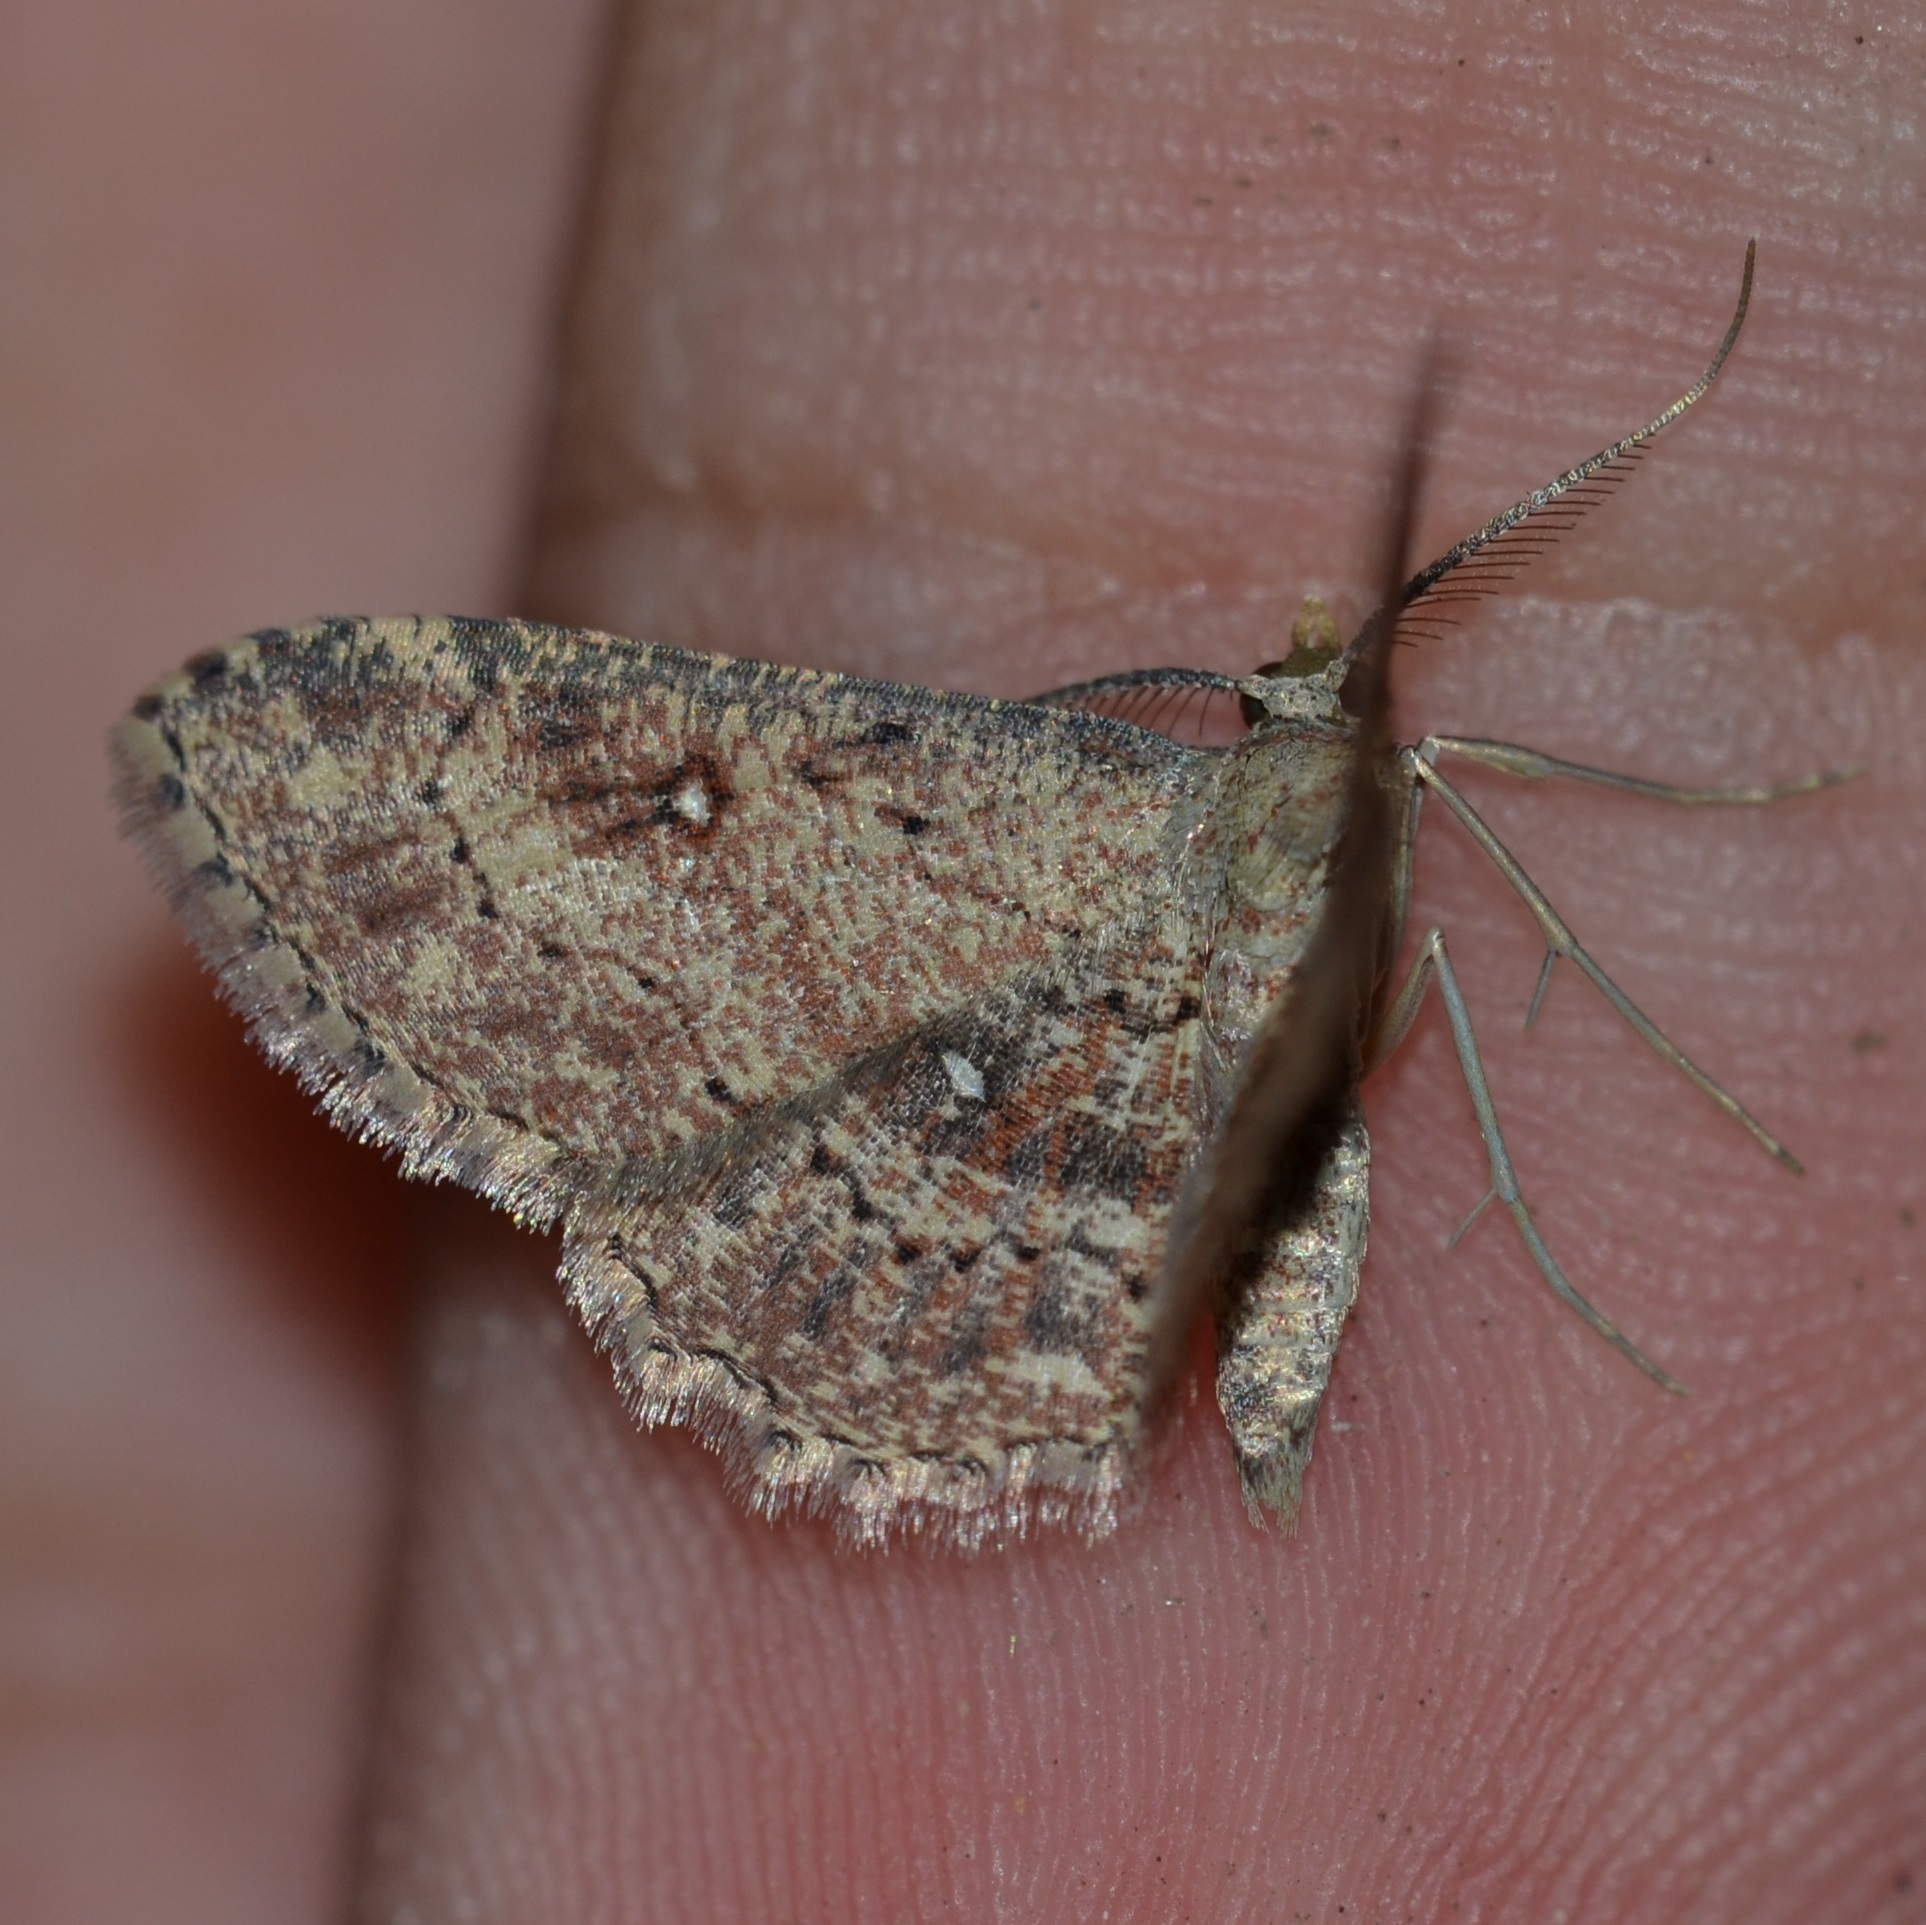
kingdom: Animalia
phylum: Arthropoda
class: Insecta
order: Lepidoptera
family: Geometridae
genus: Cyclophora
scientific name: Cyclophora nanaria
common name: Cankerworm
